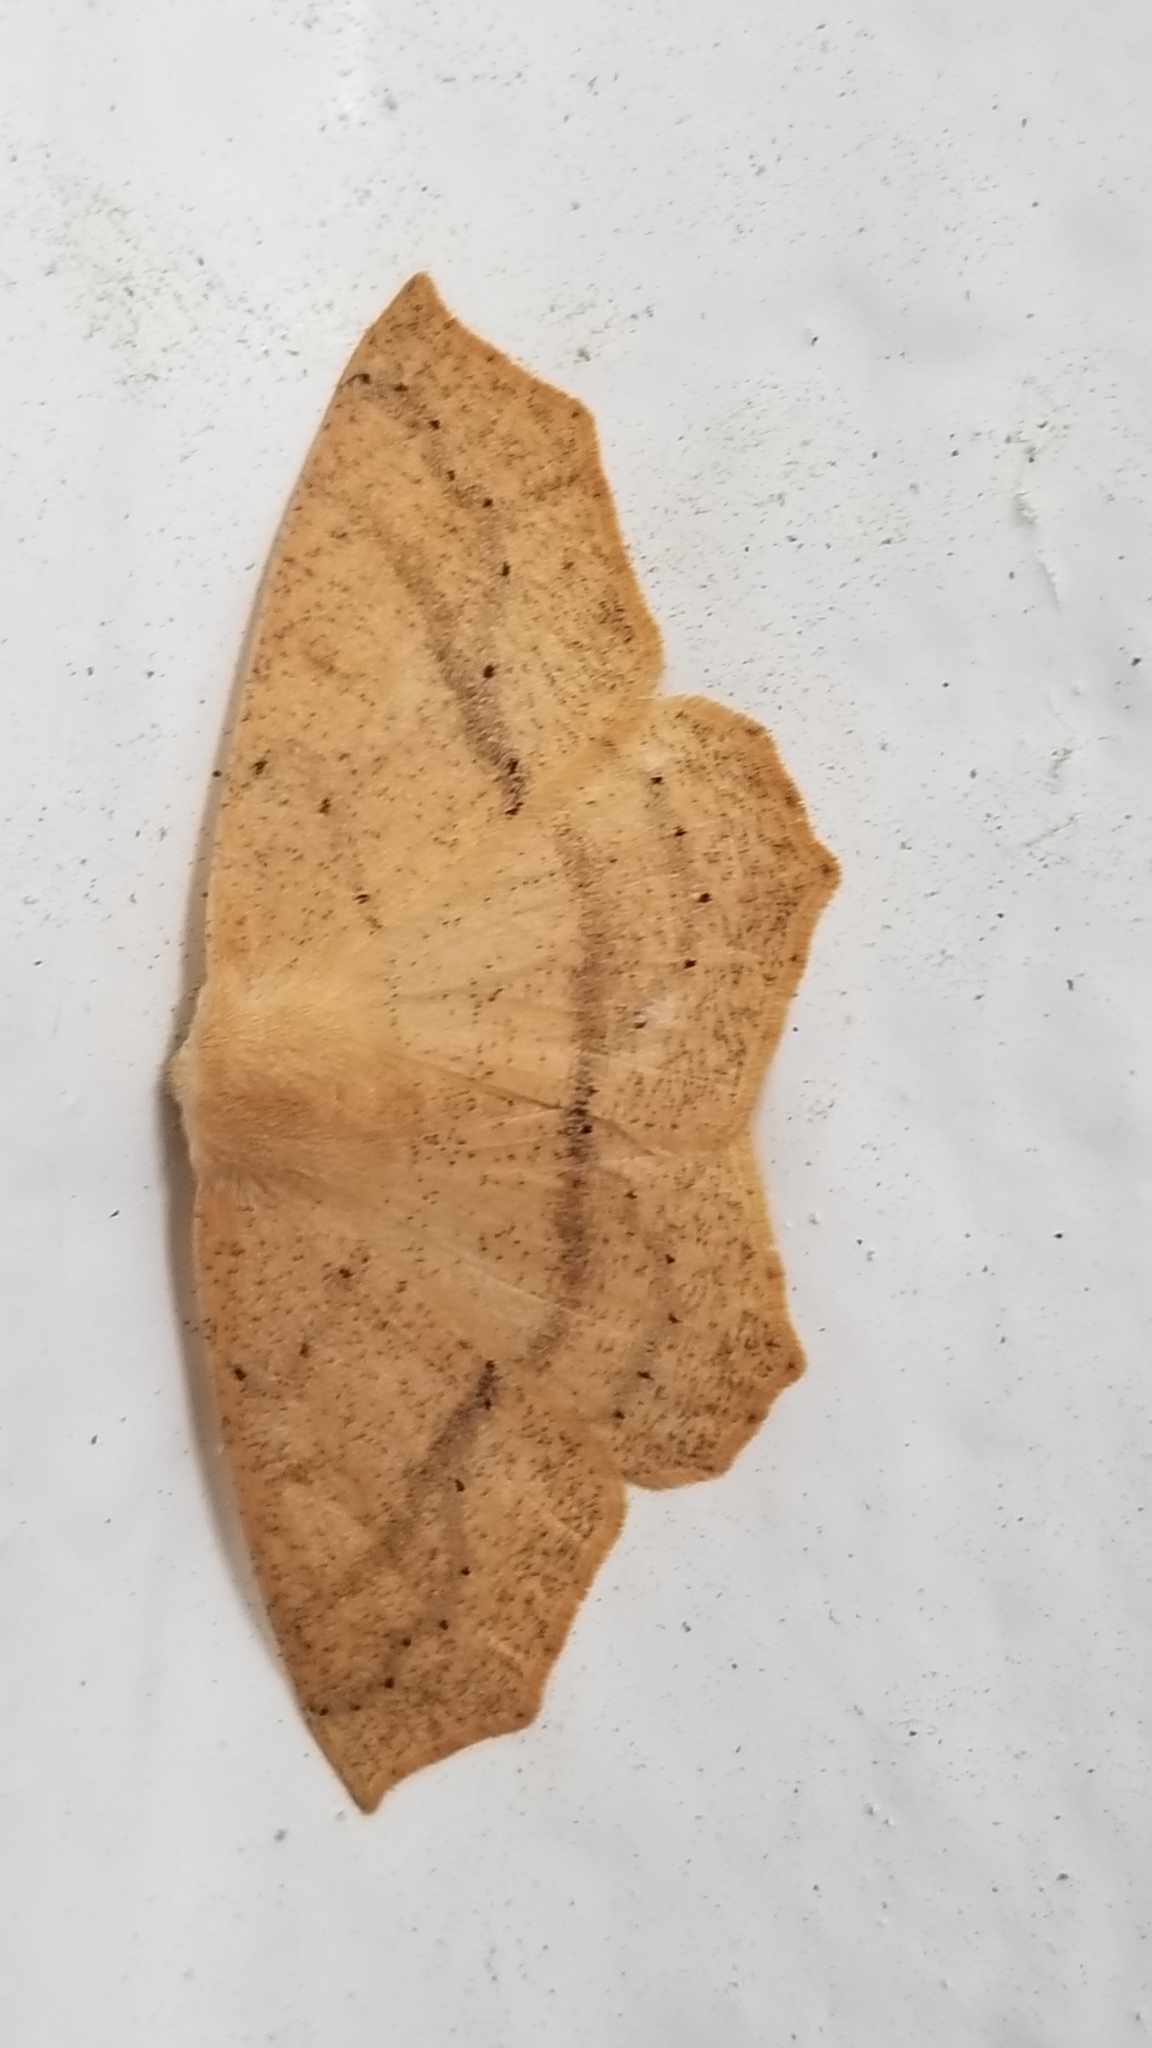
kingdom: Animalia
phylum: Arthropoda
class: Insecta
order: Lepidoptera
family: Geometridae
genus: Sabulodes
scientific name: Sabulodes aegrotata
